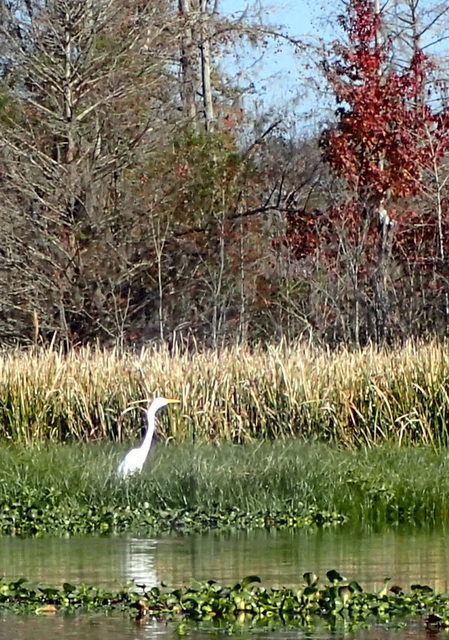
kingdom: Animalia
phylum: Chordata
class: Aves
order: Pelecaniformes
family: Ardeidae
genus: Ardea
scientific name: Ardea alba
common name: Great egret
